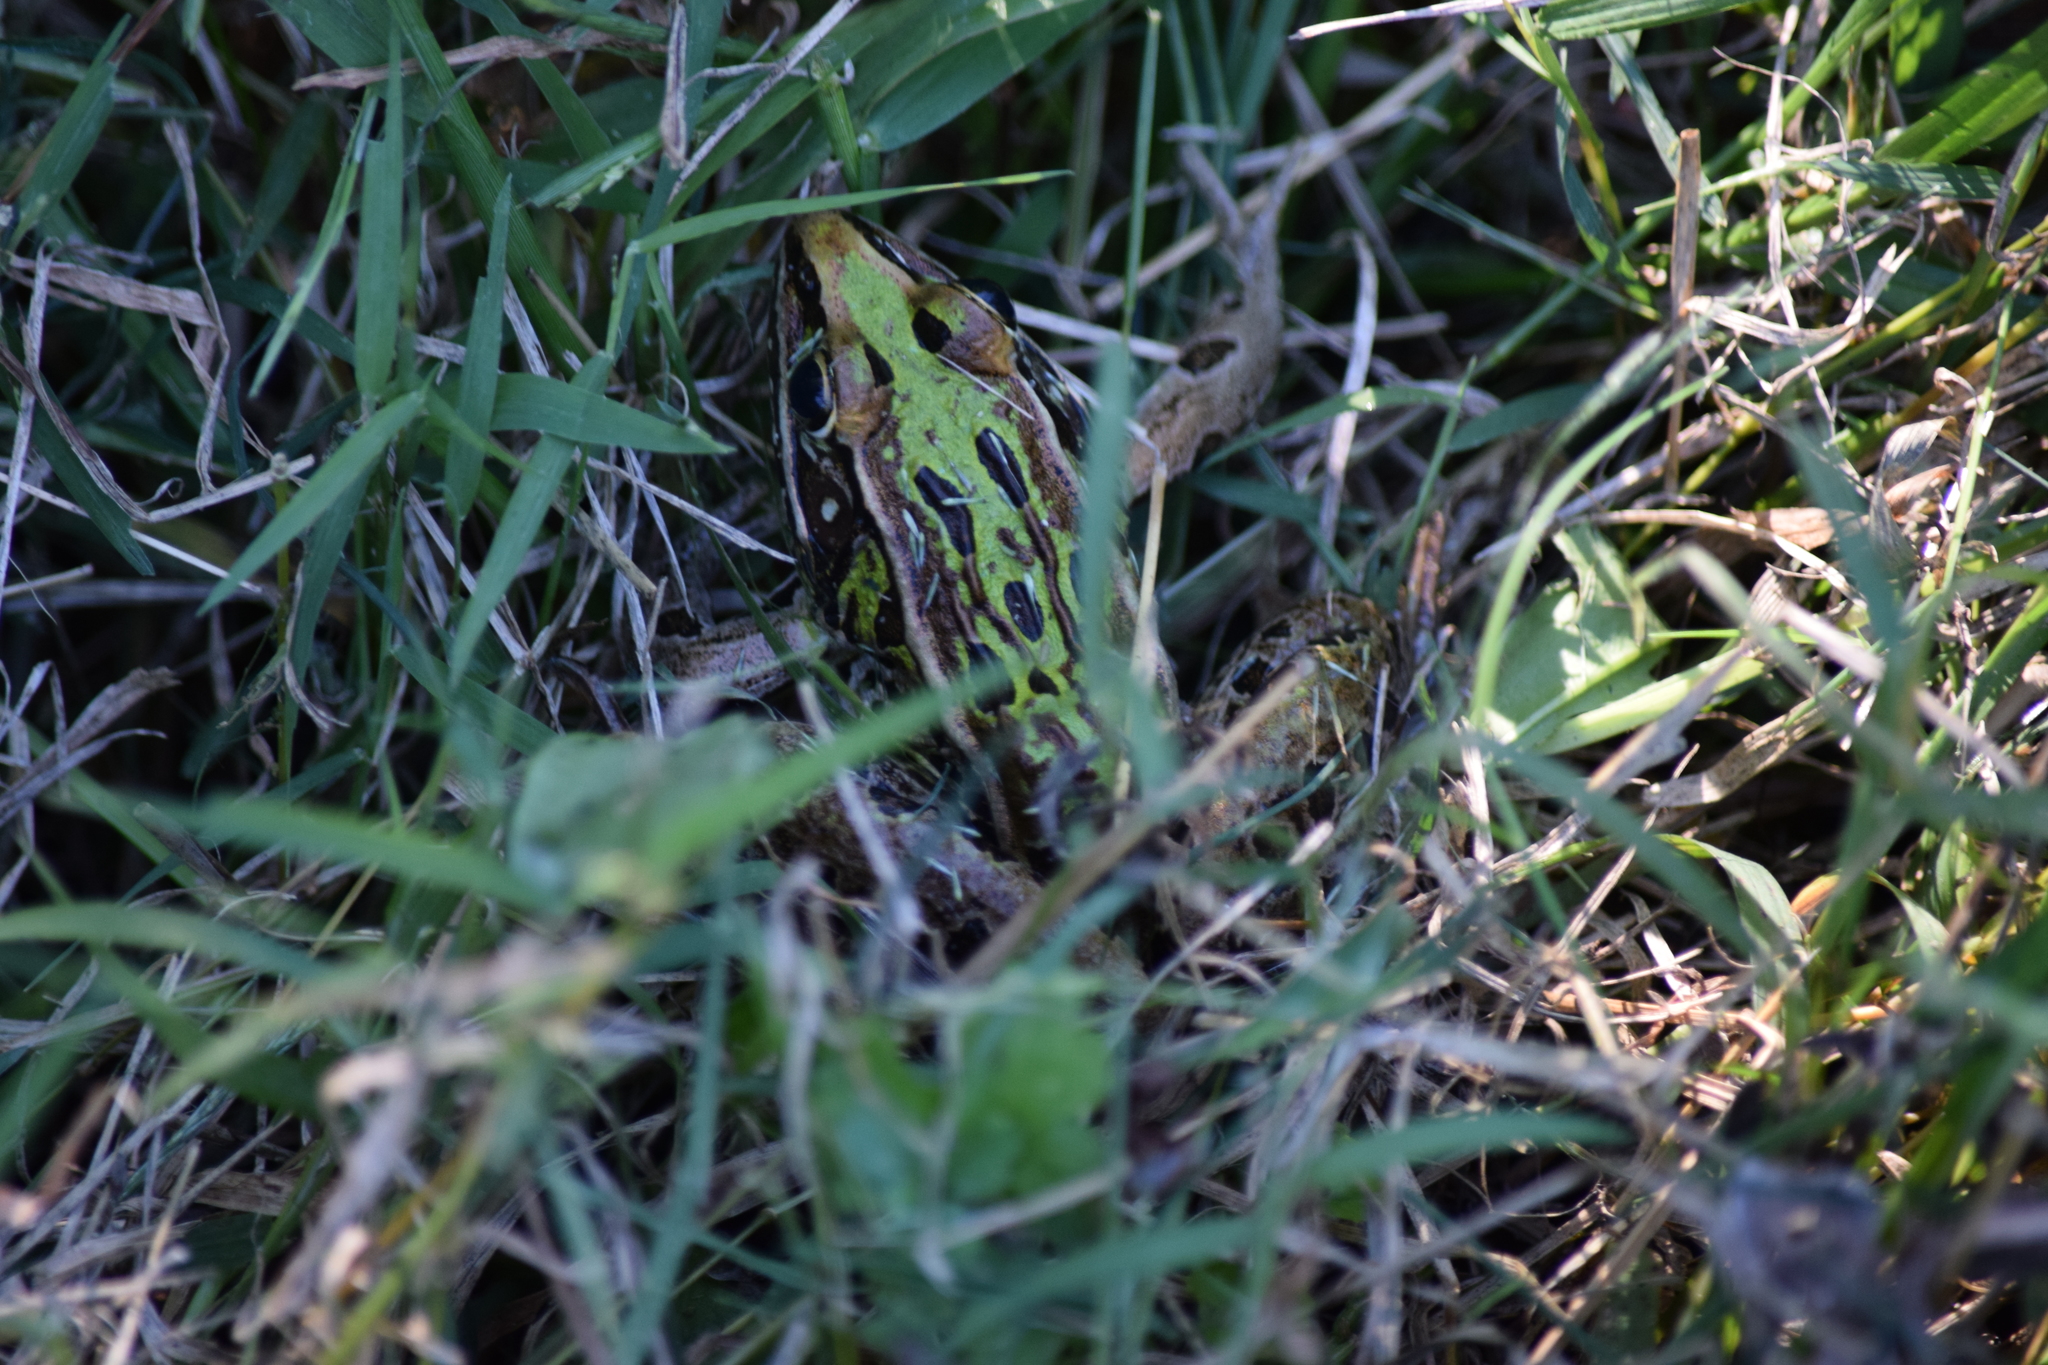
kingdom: Animalia
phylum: Chordata
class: Amphibia
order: Anura
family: Ranidae
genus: Lithobates
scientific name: Lithobates sphenocephalus
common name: Southern leopard frog
